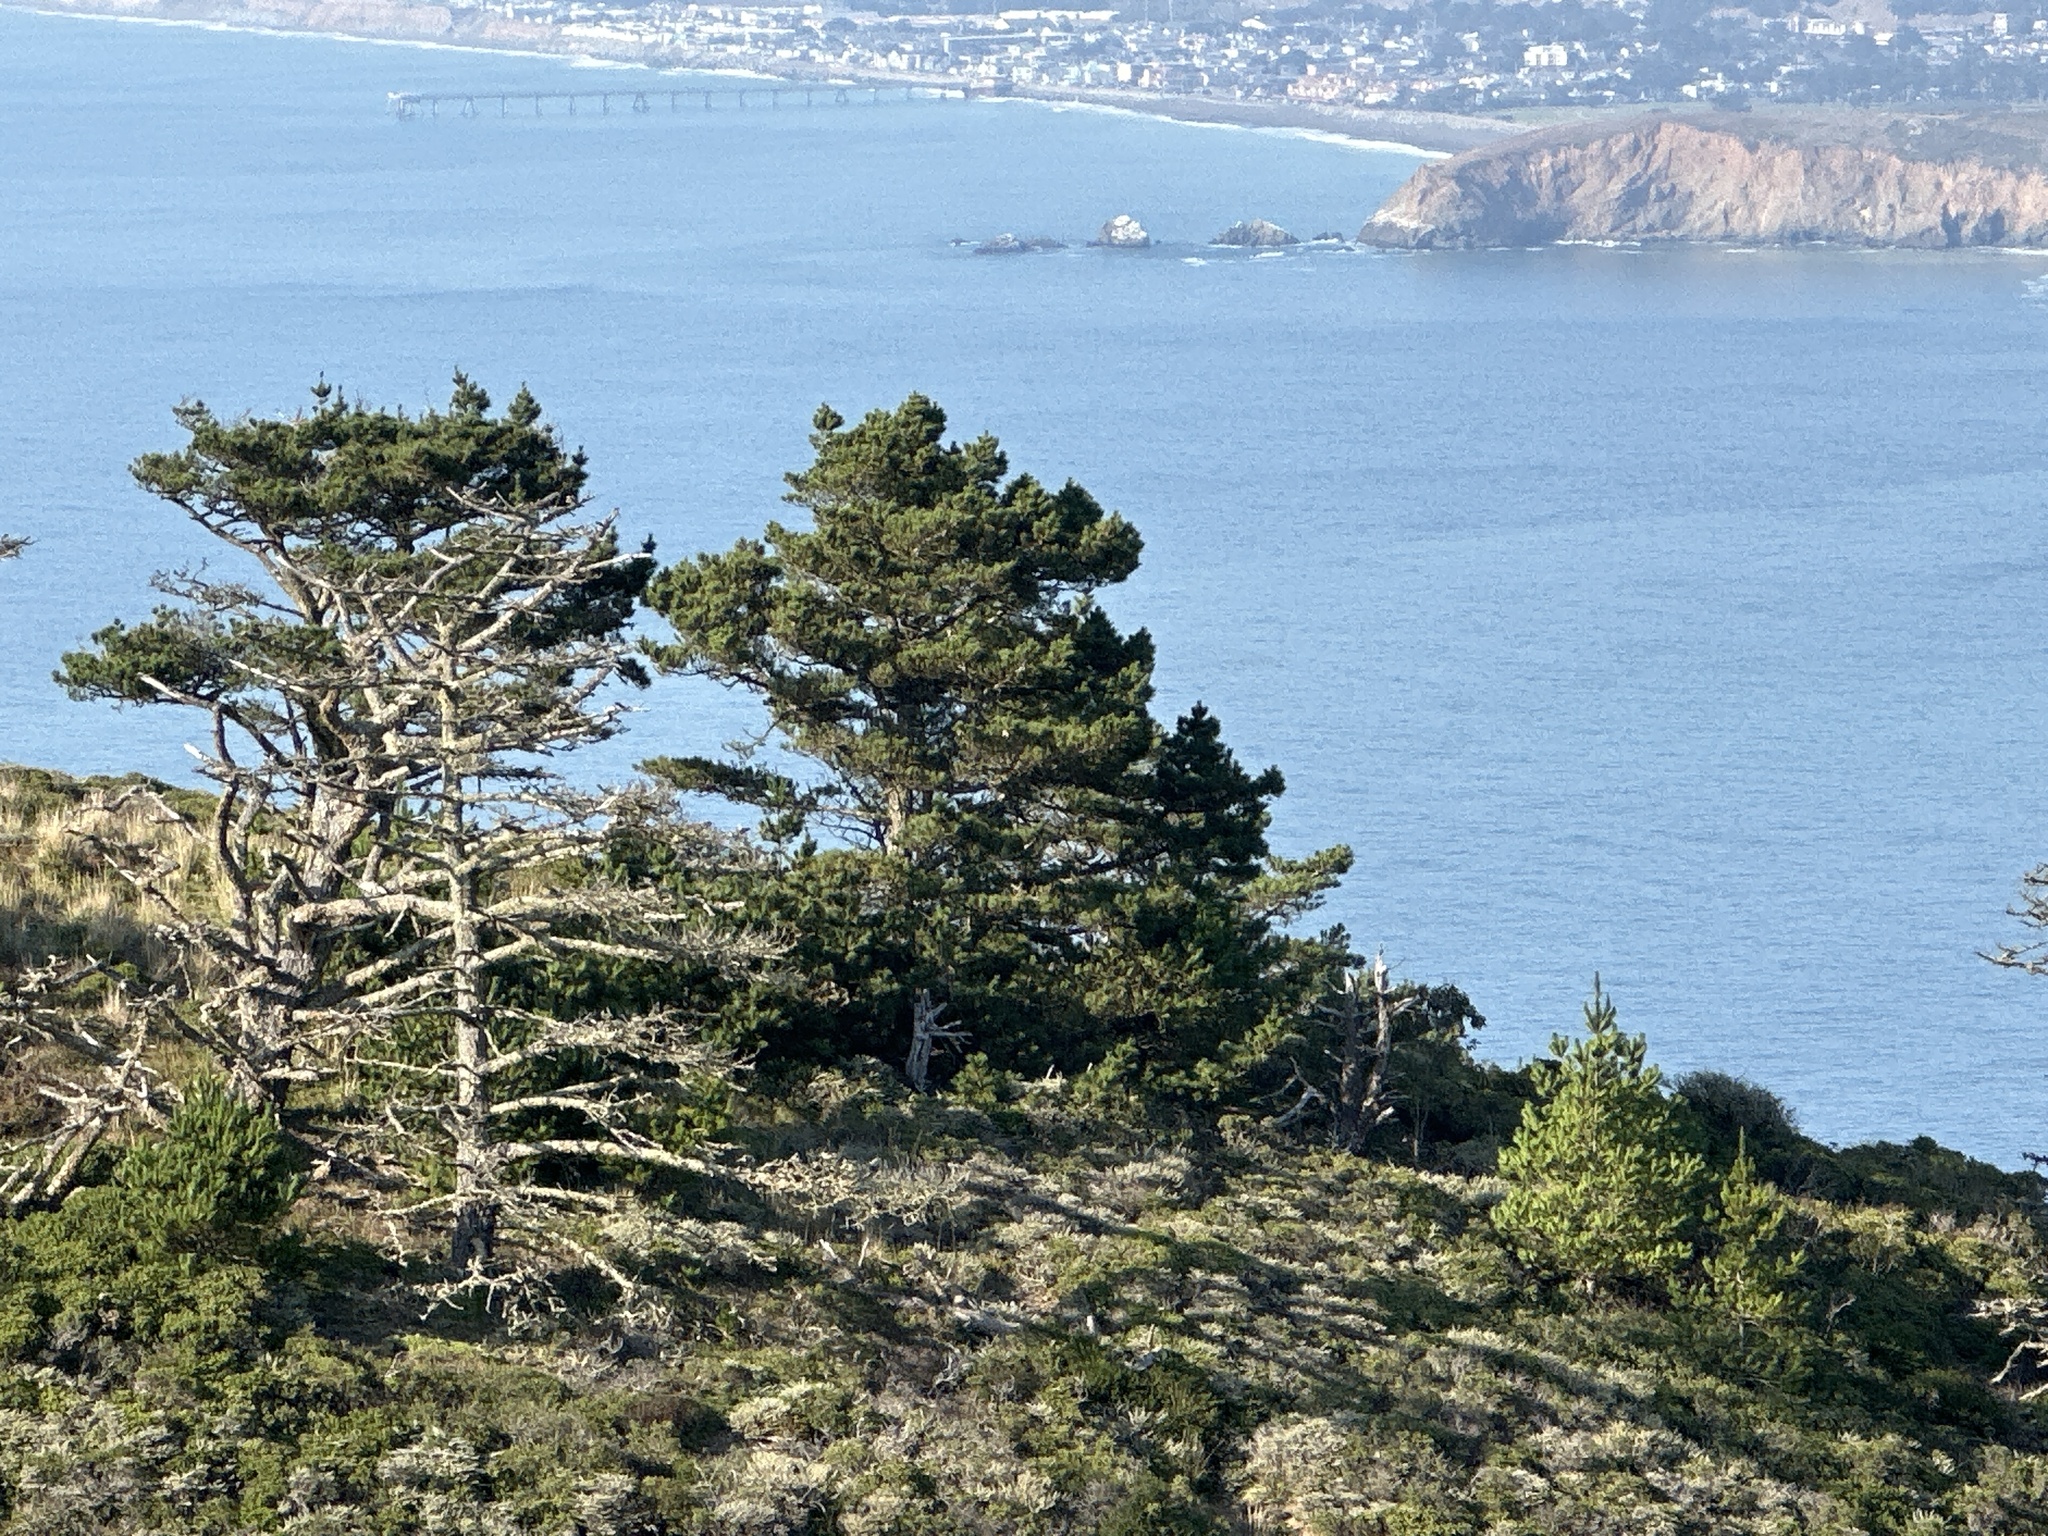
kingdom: Plantae
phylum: Tracheophyta
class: Pinopsida
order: Pinales
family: Pinaceae
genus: Pinus
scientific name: Pinus radiata
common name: Monterey pine
